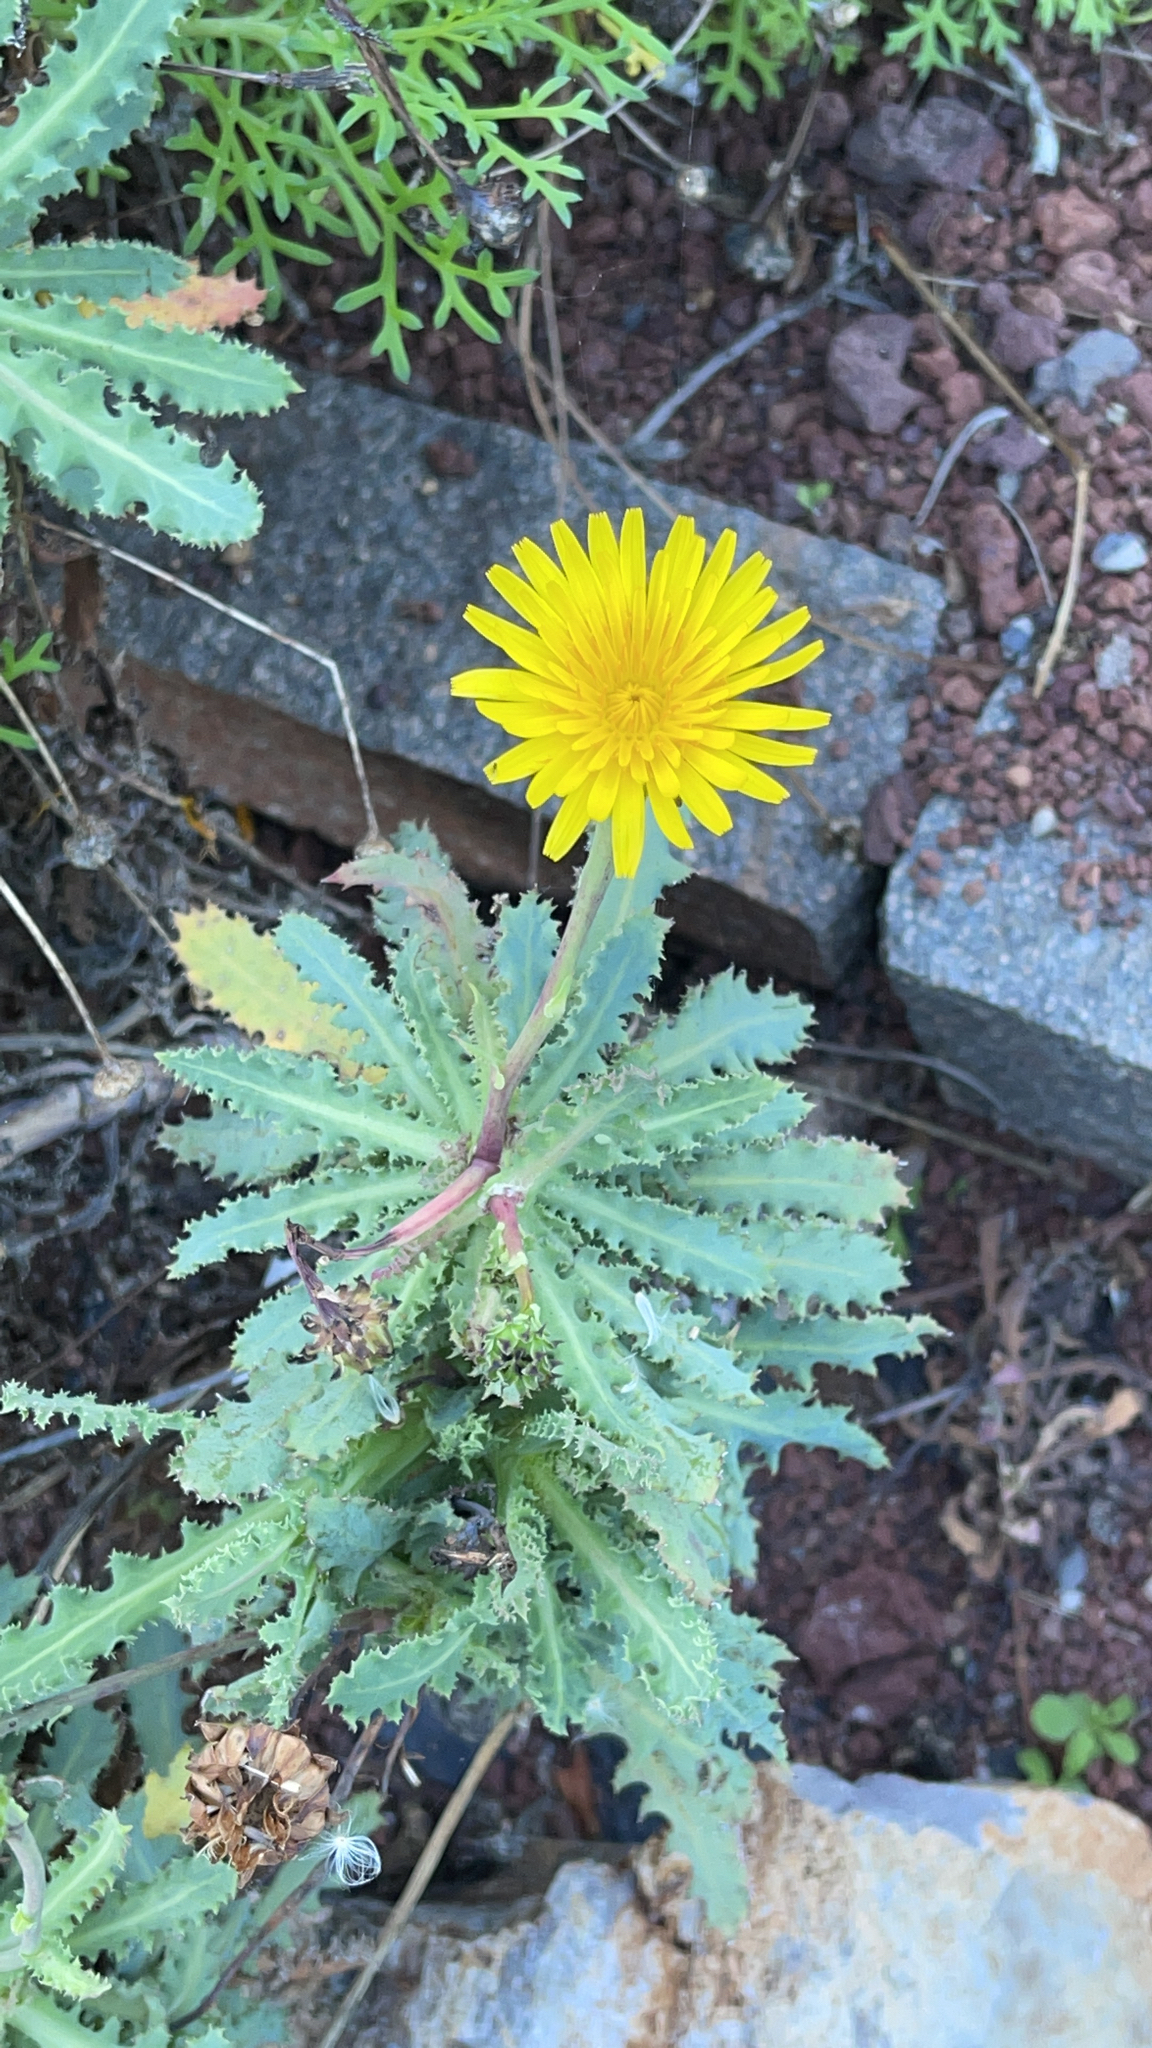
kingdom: Plantae
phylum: Tracheophyta
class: Magnoliopsida
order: Asterales
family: Asteraceae
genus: Reichardia
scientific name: Reichardia ligulata
